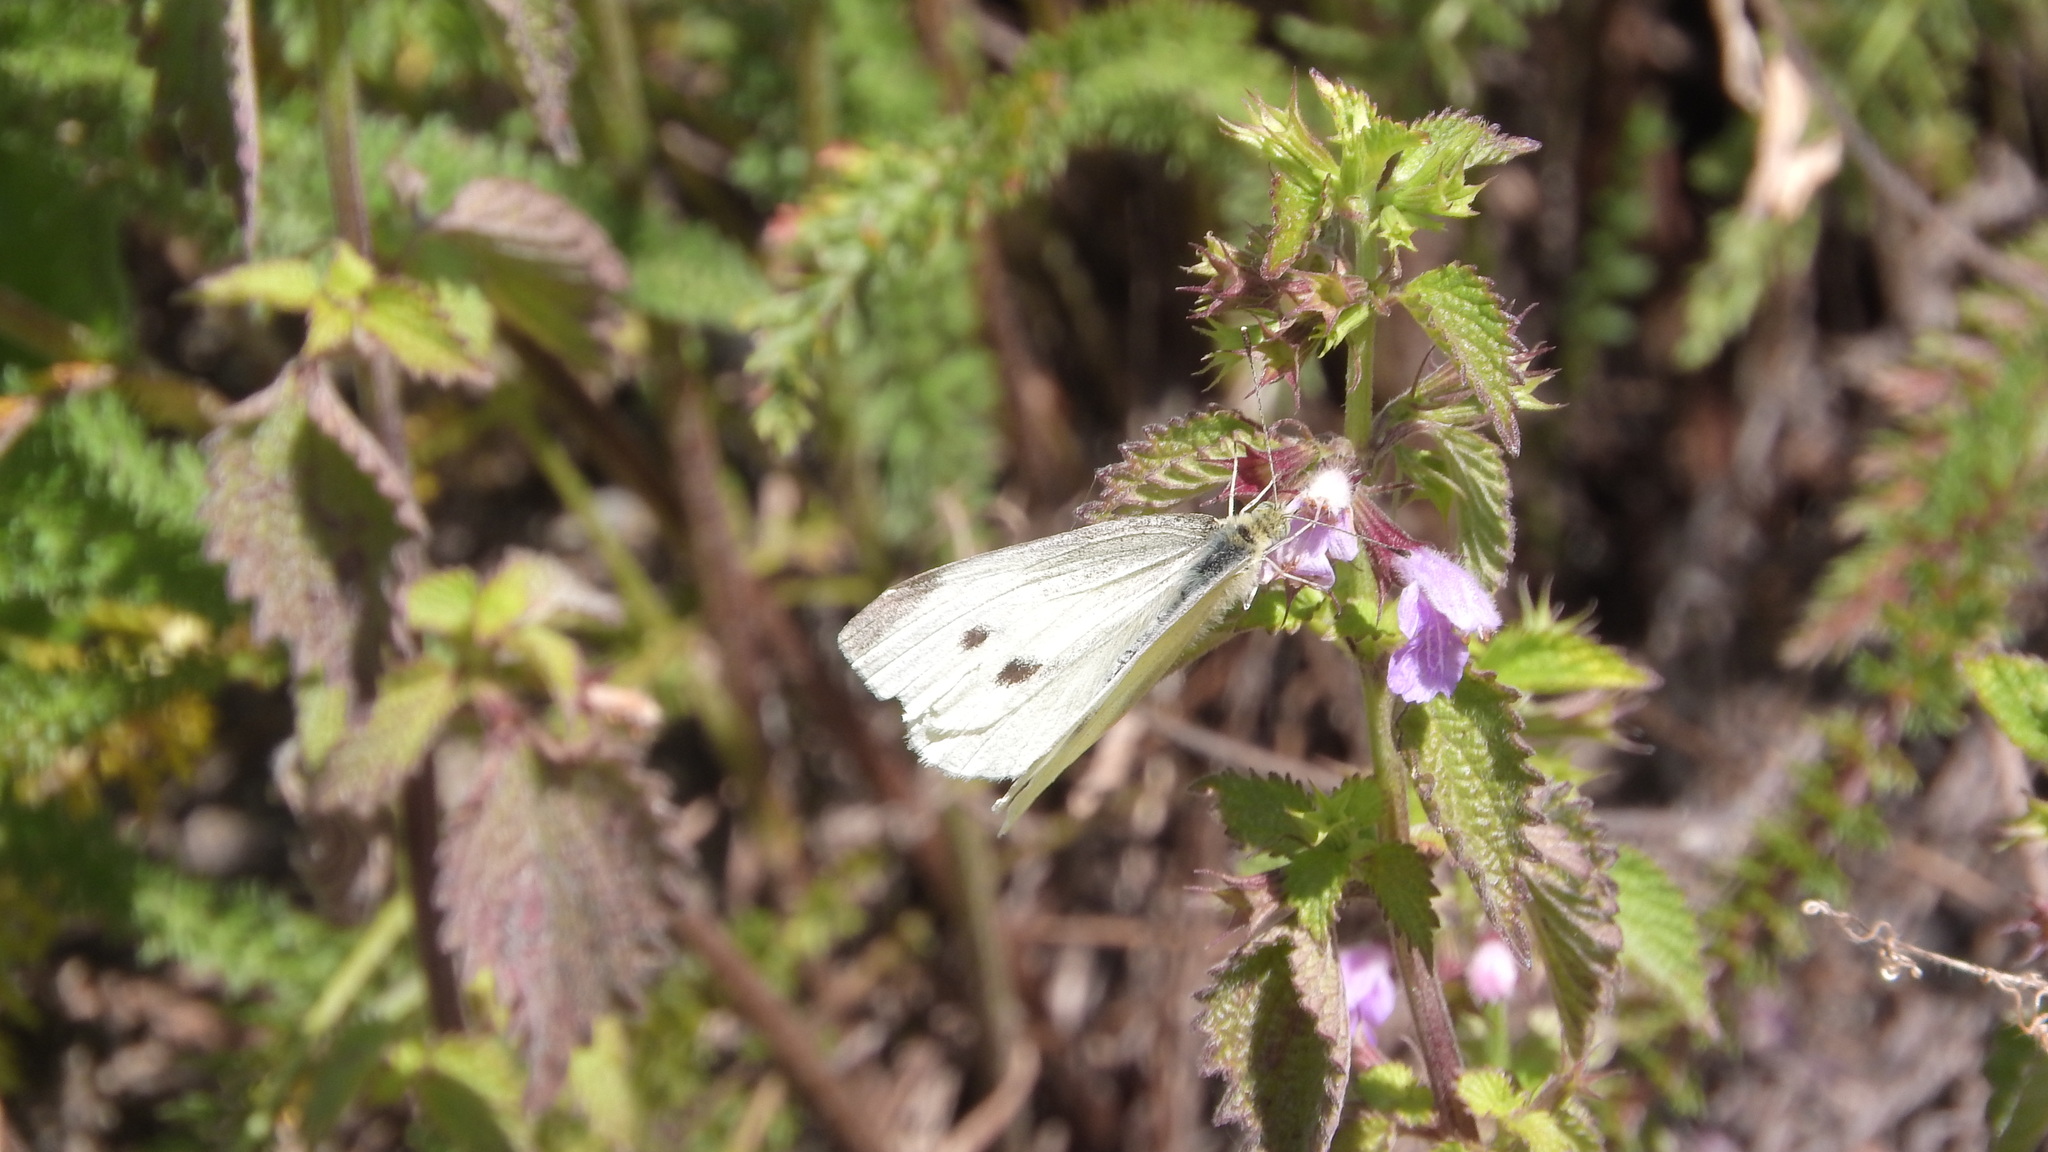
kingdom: Animalia
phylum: Arthropoda
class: Insecta
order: Lepidoptera
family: Pieridae
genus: Pieris
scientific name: Pieris rapae
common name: Small white
